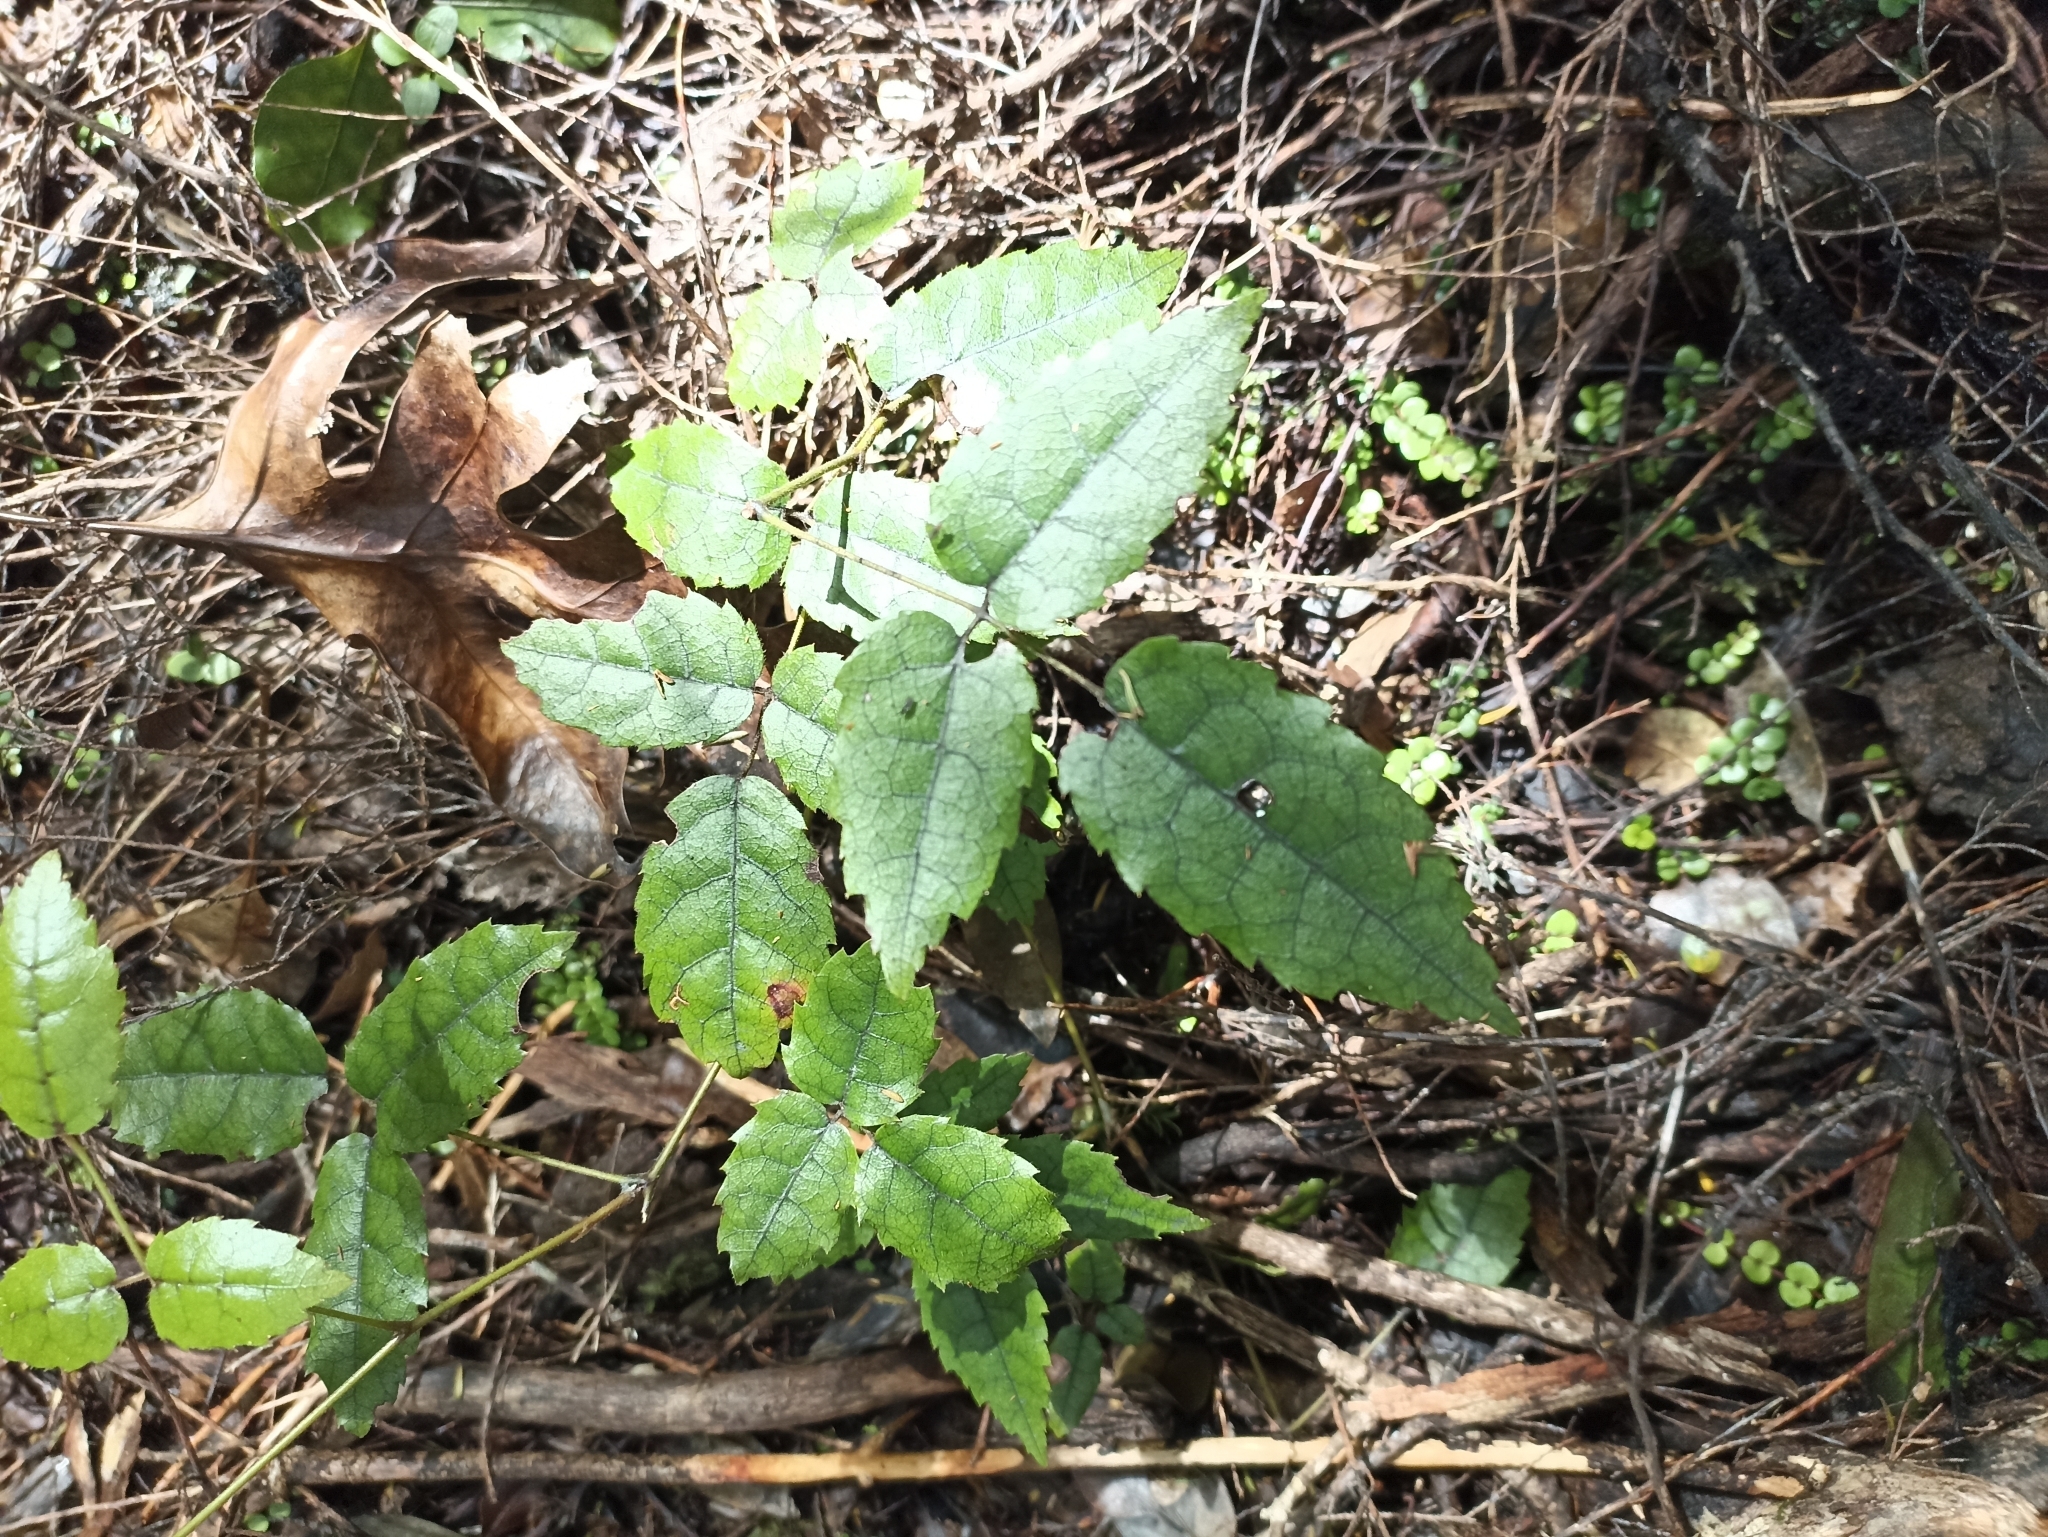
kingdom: Plantae
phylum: Tracheophyta
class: Magnoliopsida
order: Rosales
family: Rosaceae
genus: Rubus
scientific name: Rubus australis
